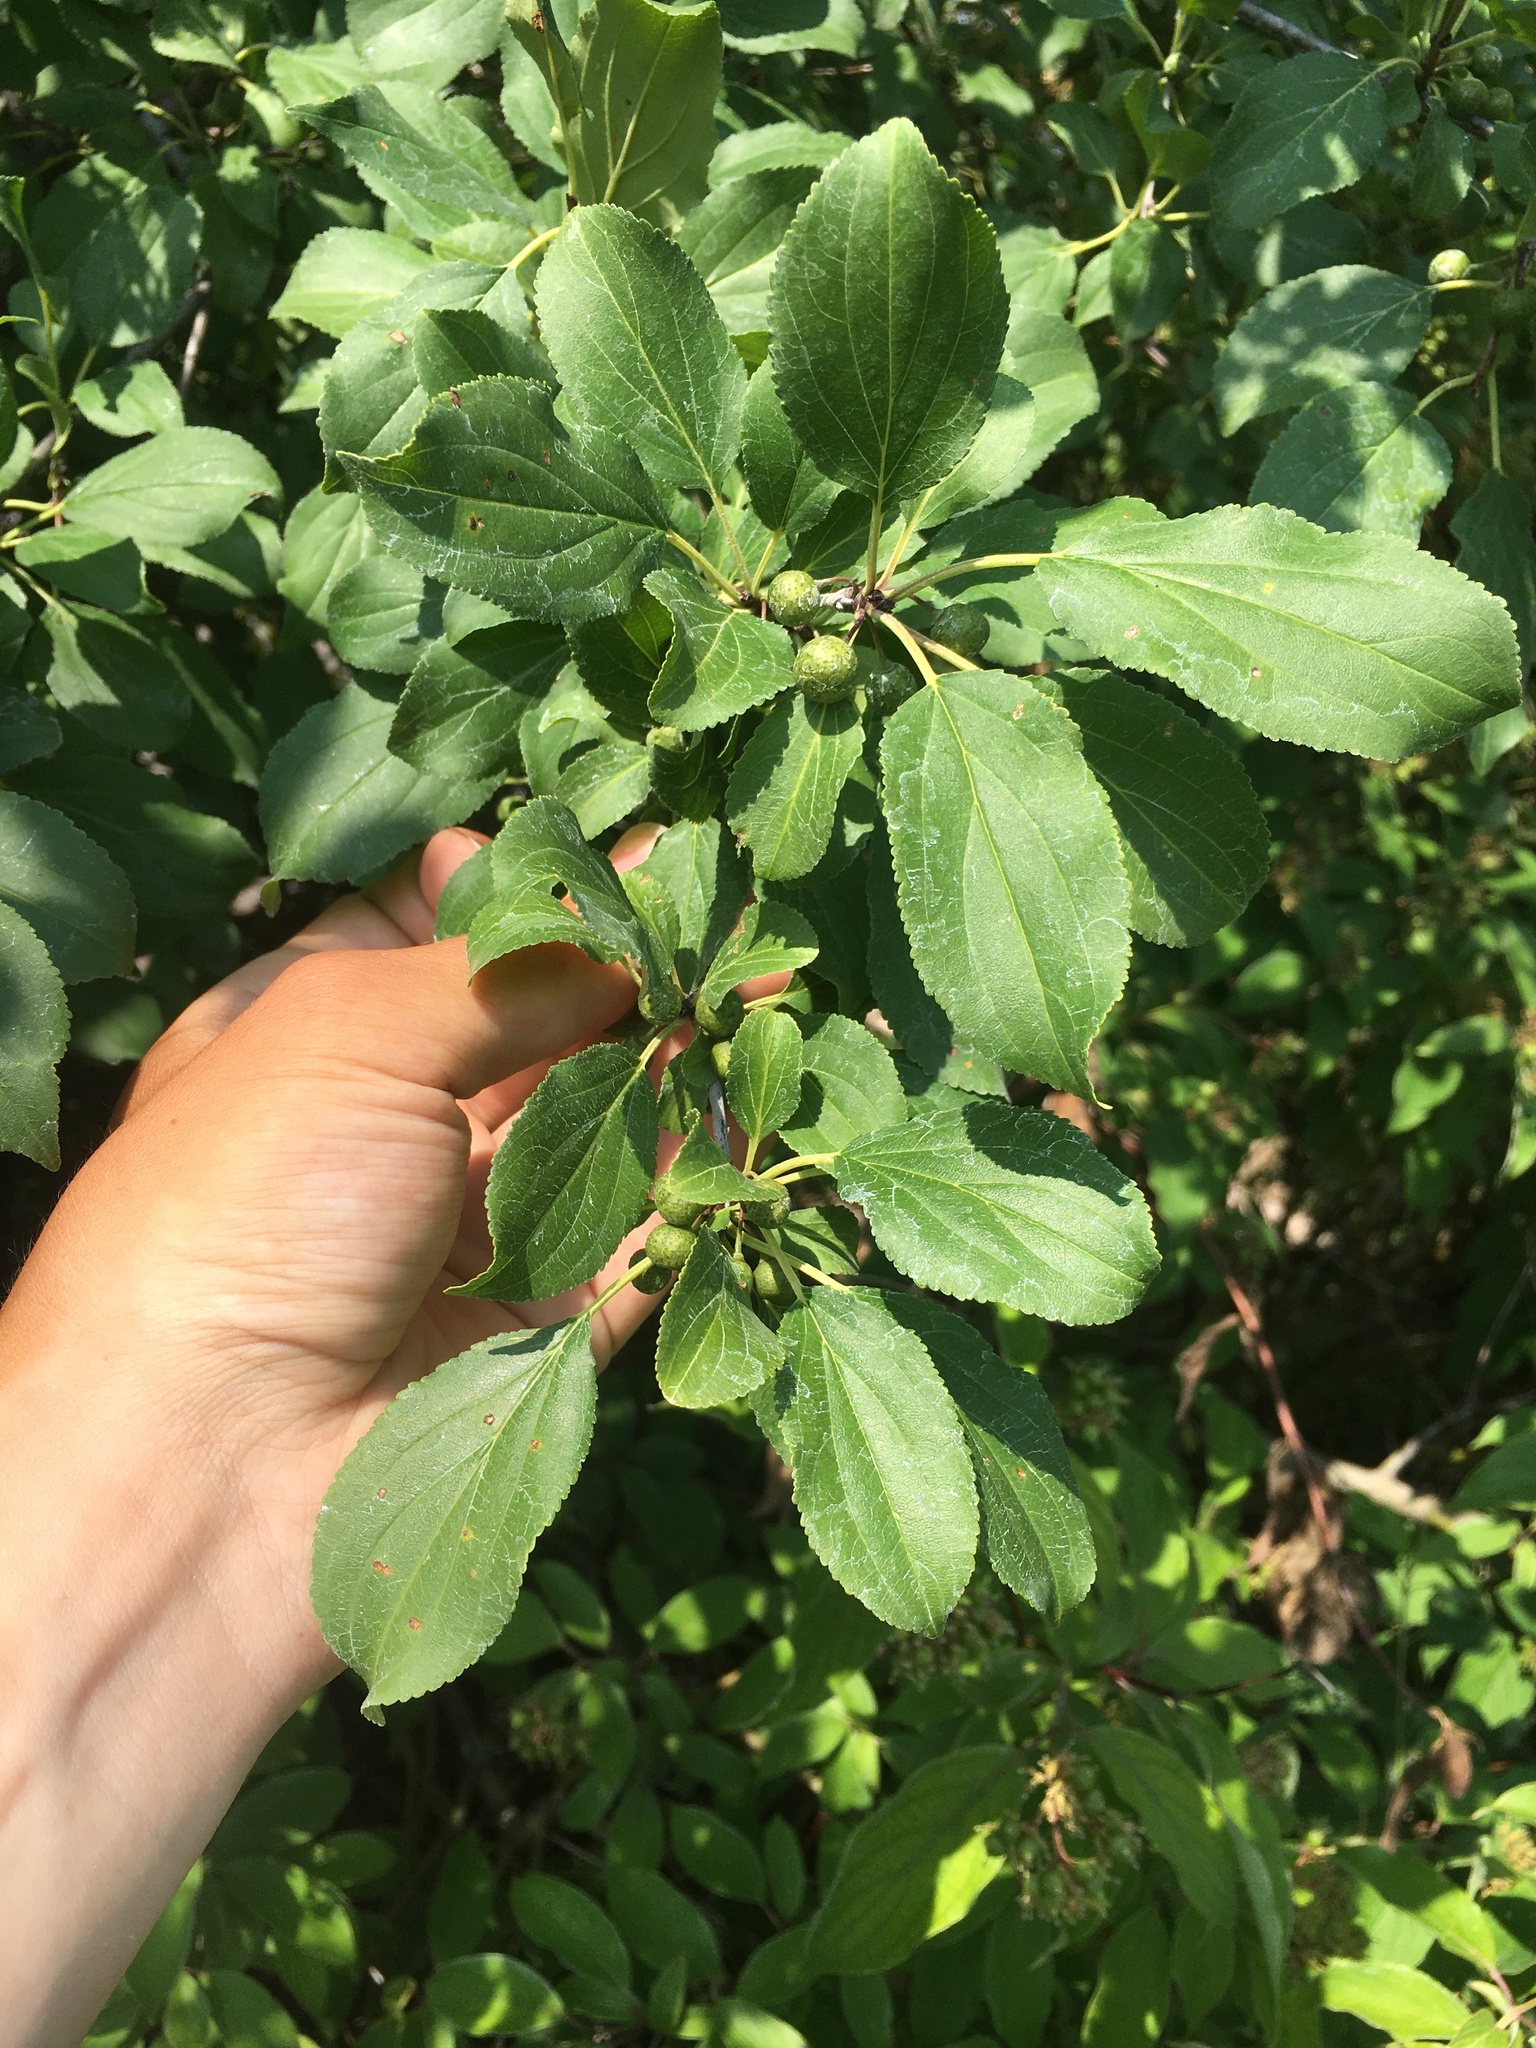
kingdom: Plantae
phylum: Tracheophyta
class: Magnoliopsida
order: Rosales
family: Rhamnaceae
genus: Rhamnus
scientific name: Rhamnus cathartica
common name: Common buckthorn
